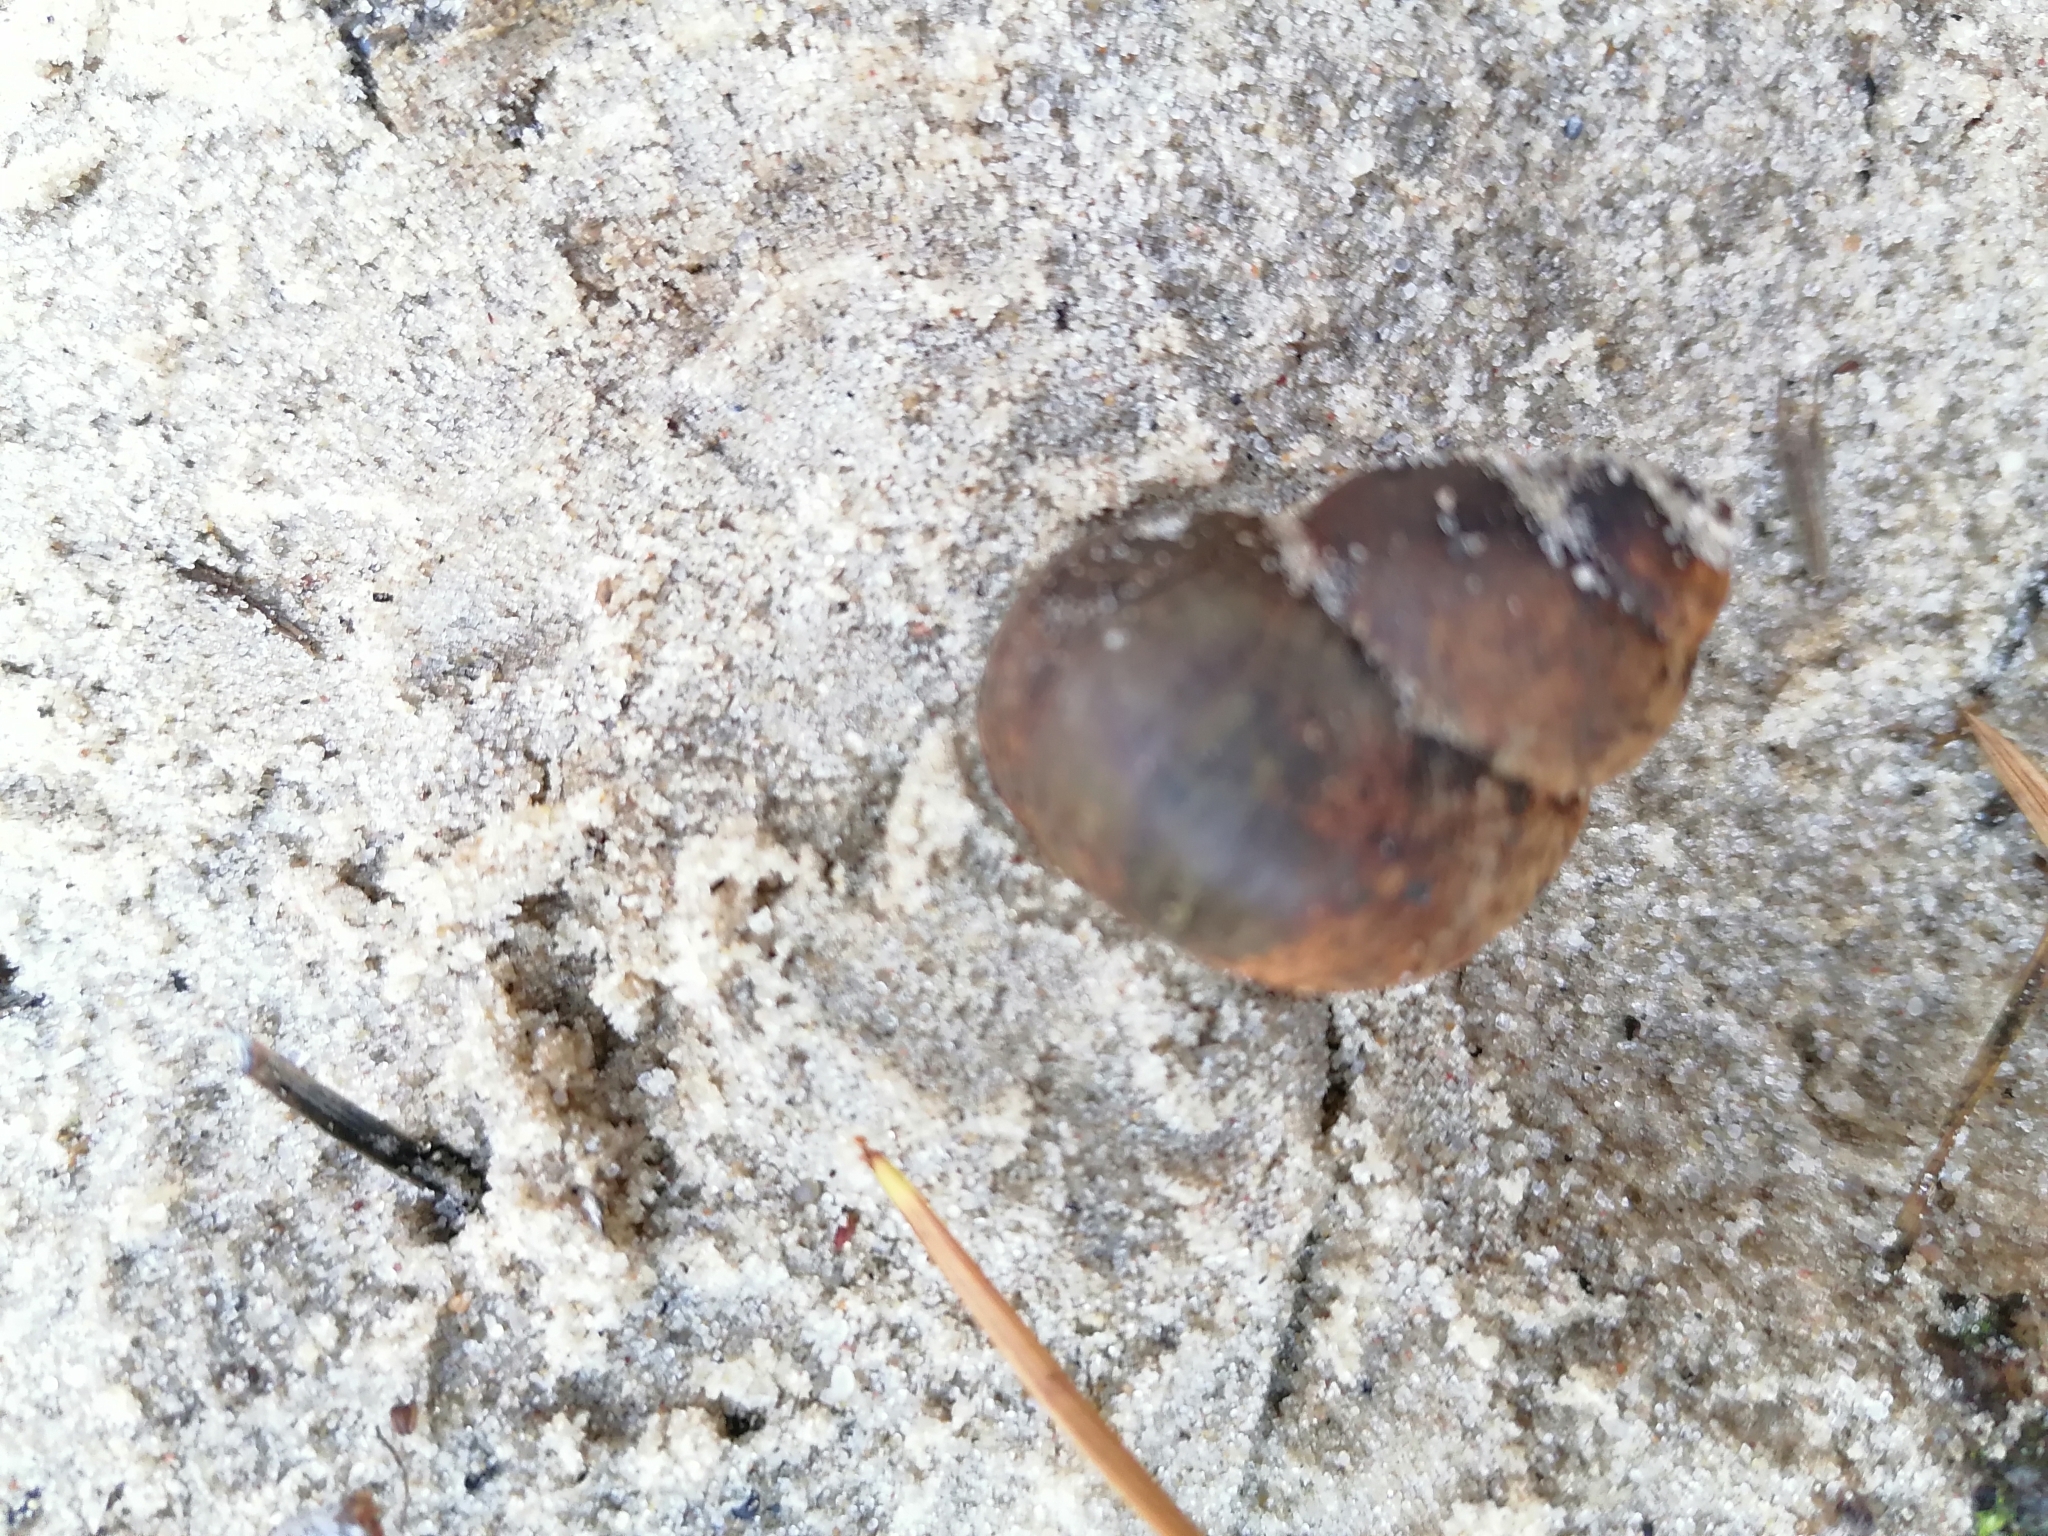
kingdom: Animalia
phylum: Mollusca
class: Gastropoda
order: Architaenioglossa
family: Viviparidae
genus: Viviparus
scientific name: Viviparus viviparus
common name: River snail
